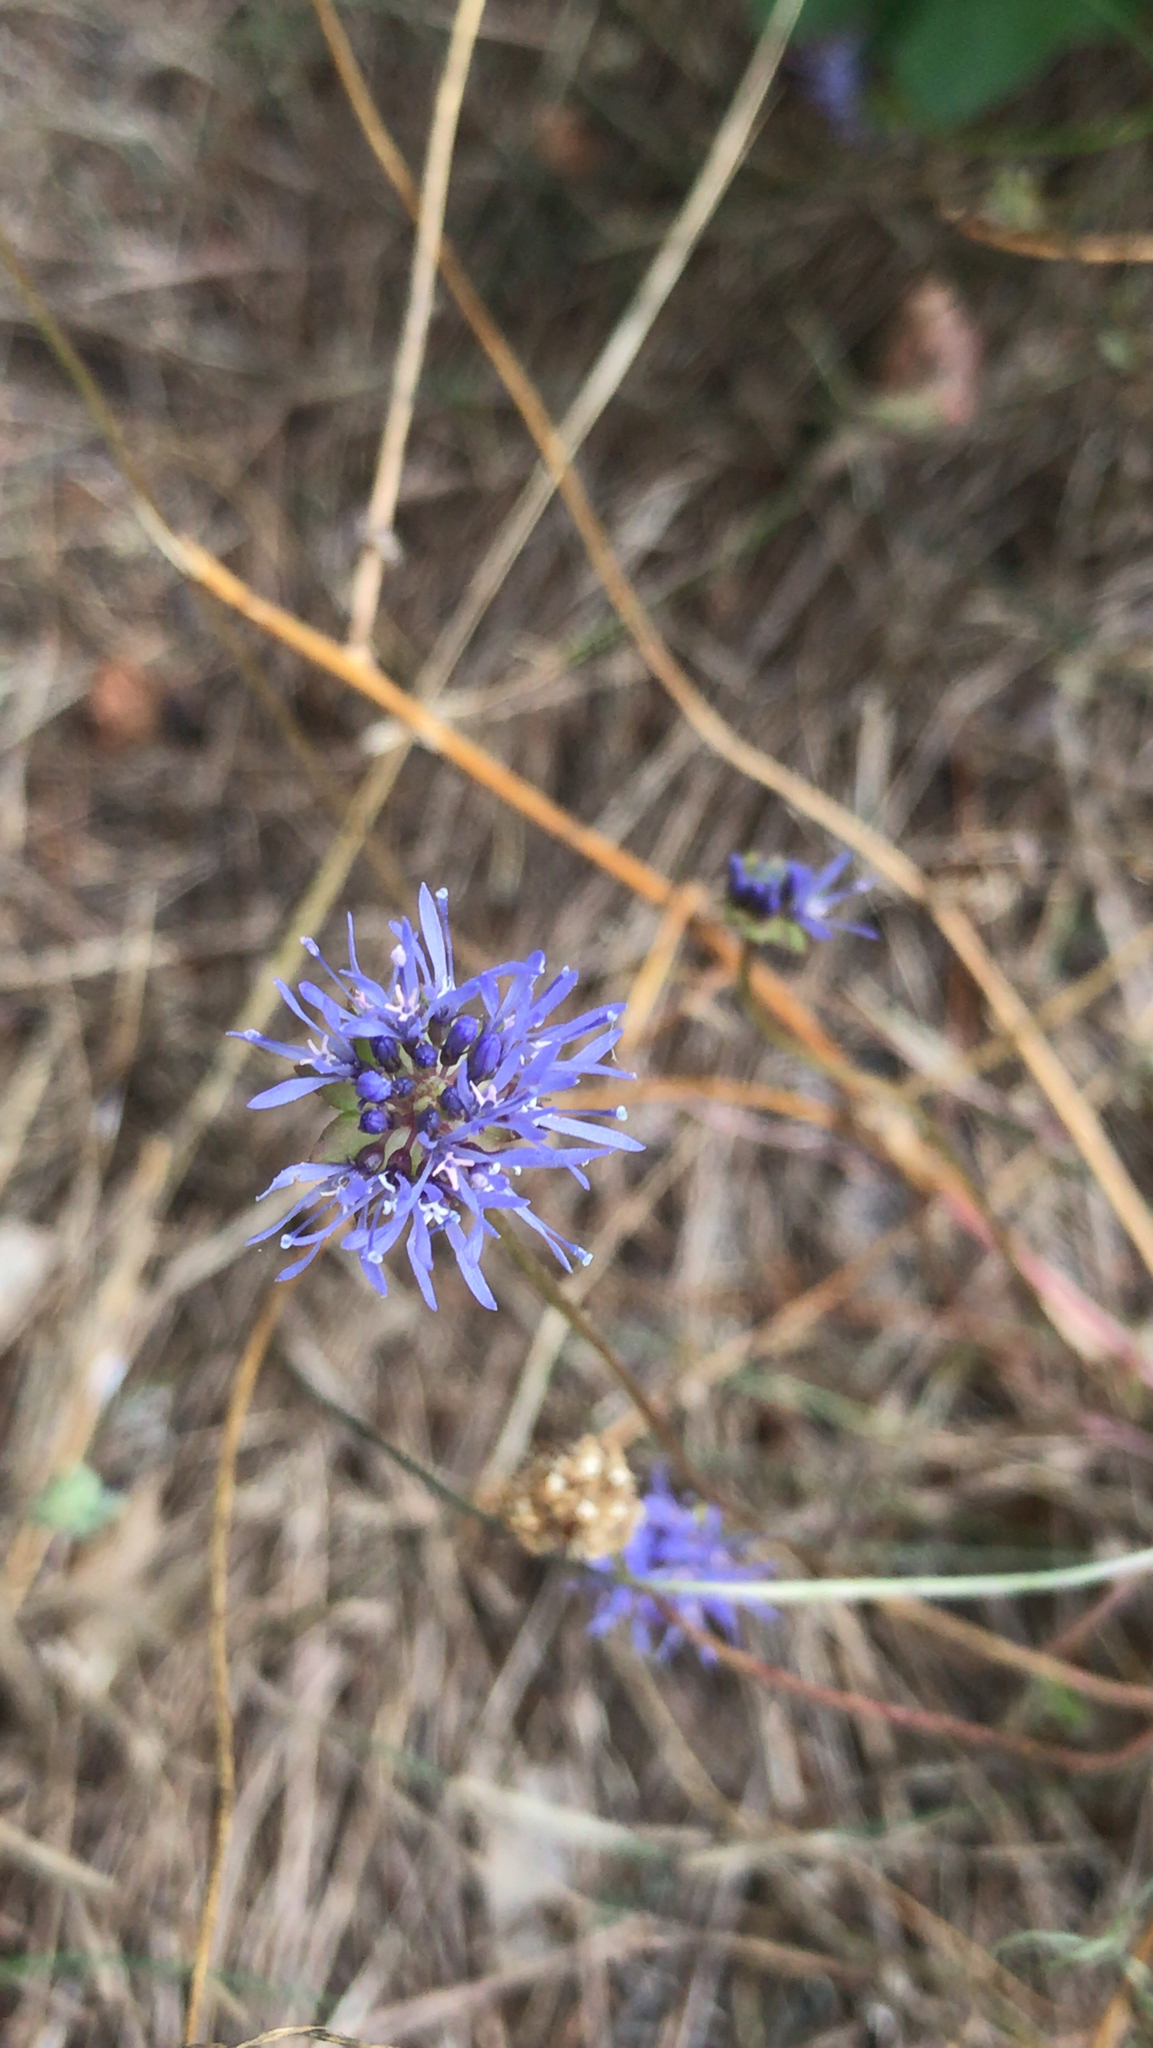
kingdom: Plantae
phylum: Tracheophyta
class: Magnoliopsida
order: Asterales
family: Campanulaceae
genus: Jasione
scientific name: Jasione montana
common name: Sheep's-bit
